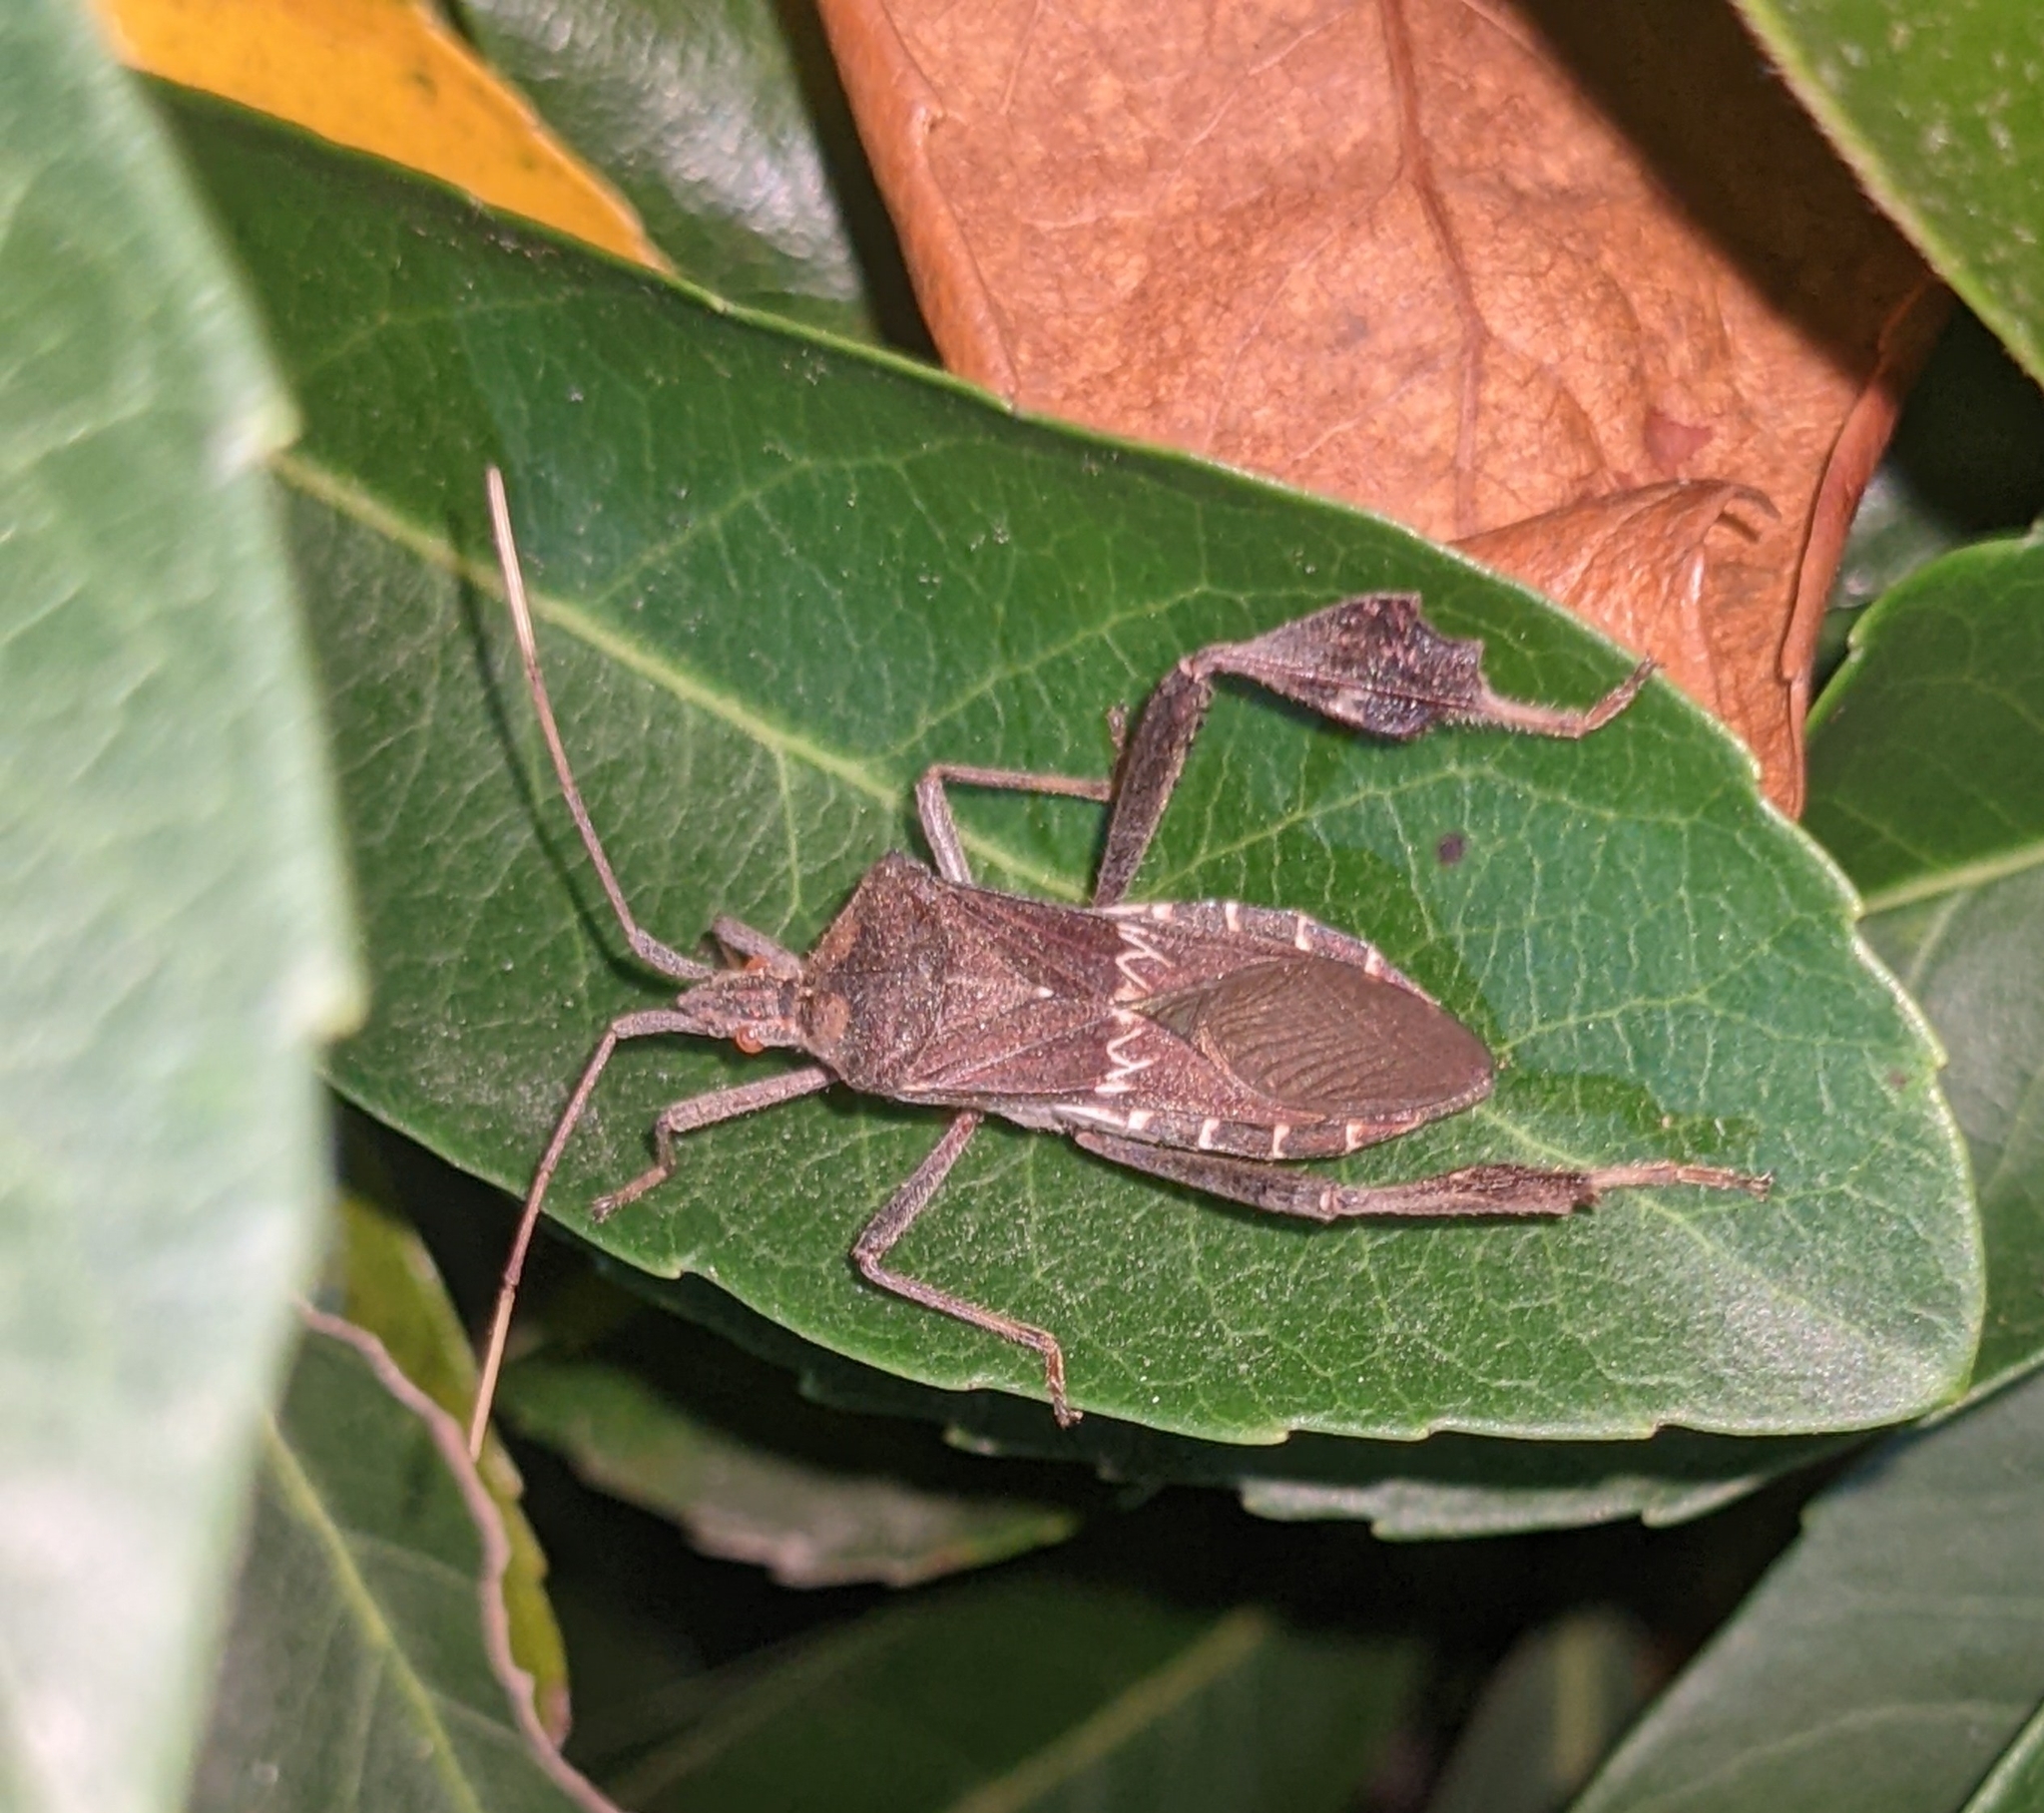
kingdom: Animalia
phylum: Arthropoda
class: Insecta
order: Hemiptera
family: Coreidae
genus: Leptoglossus
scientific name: Leptoglossus zonatus
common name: Large-legged bug
